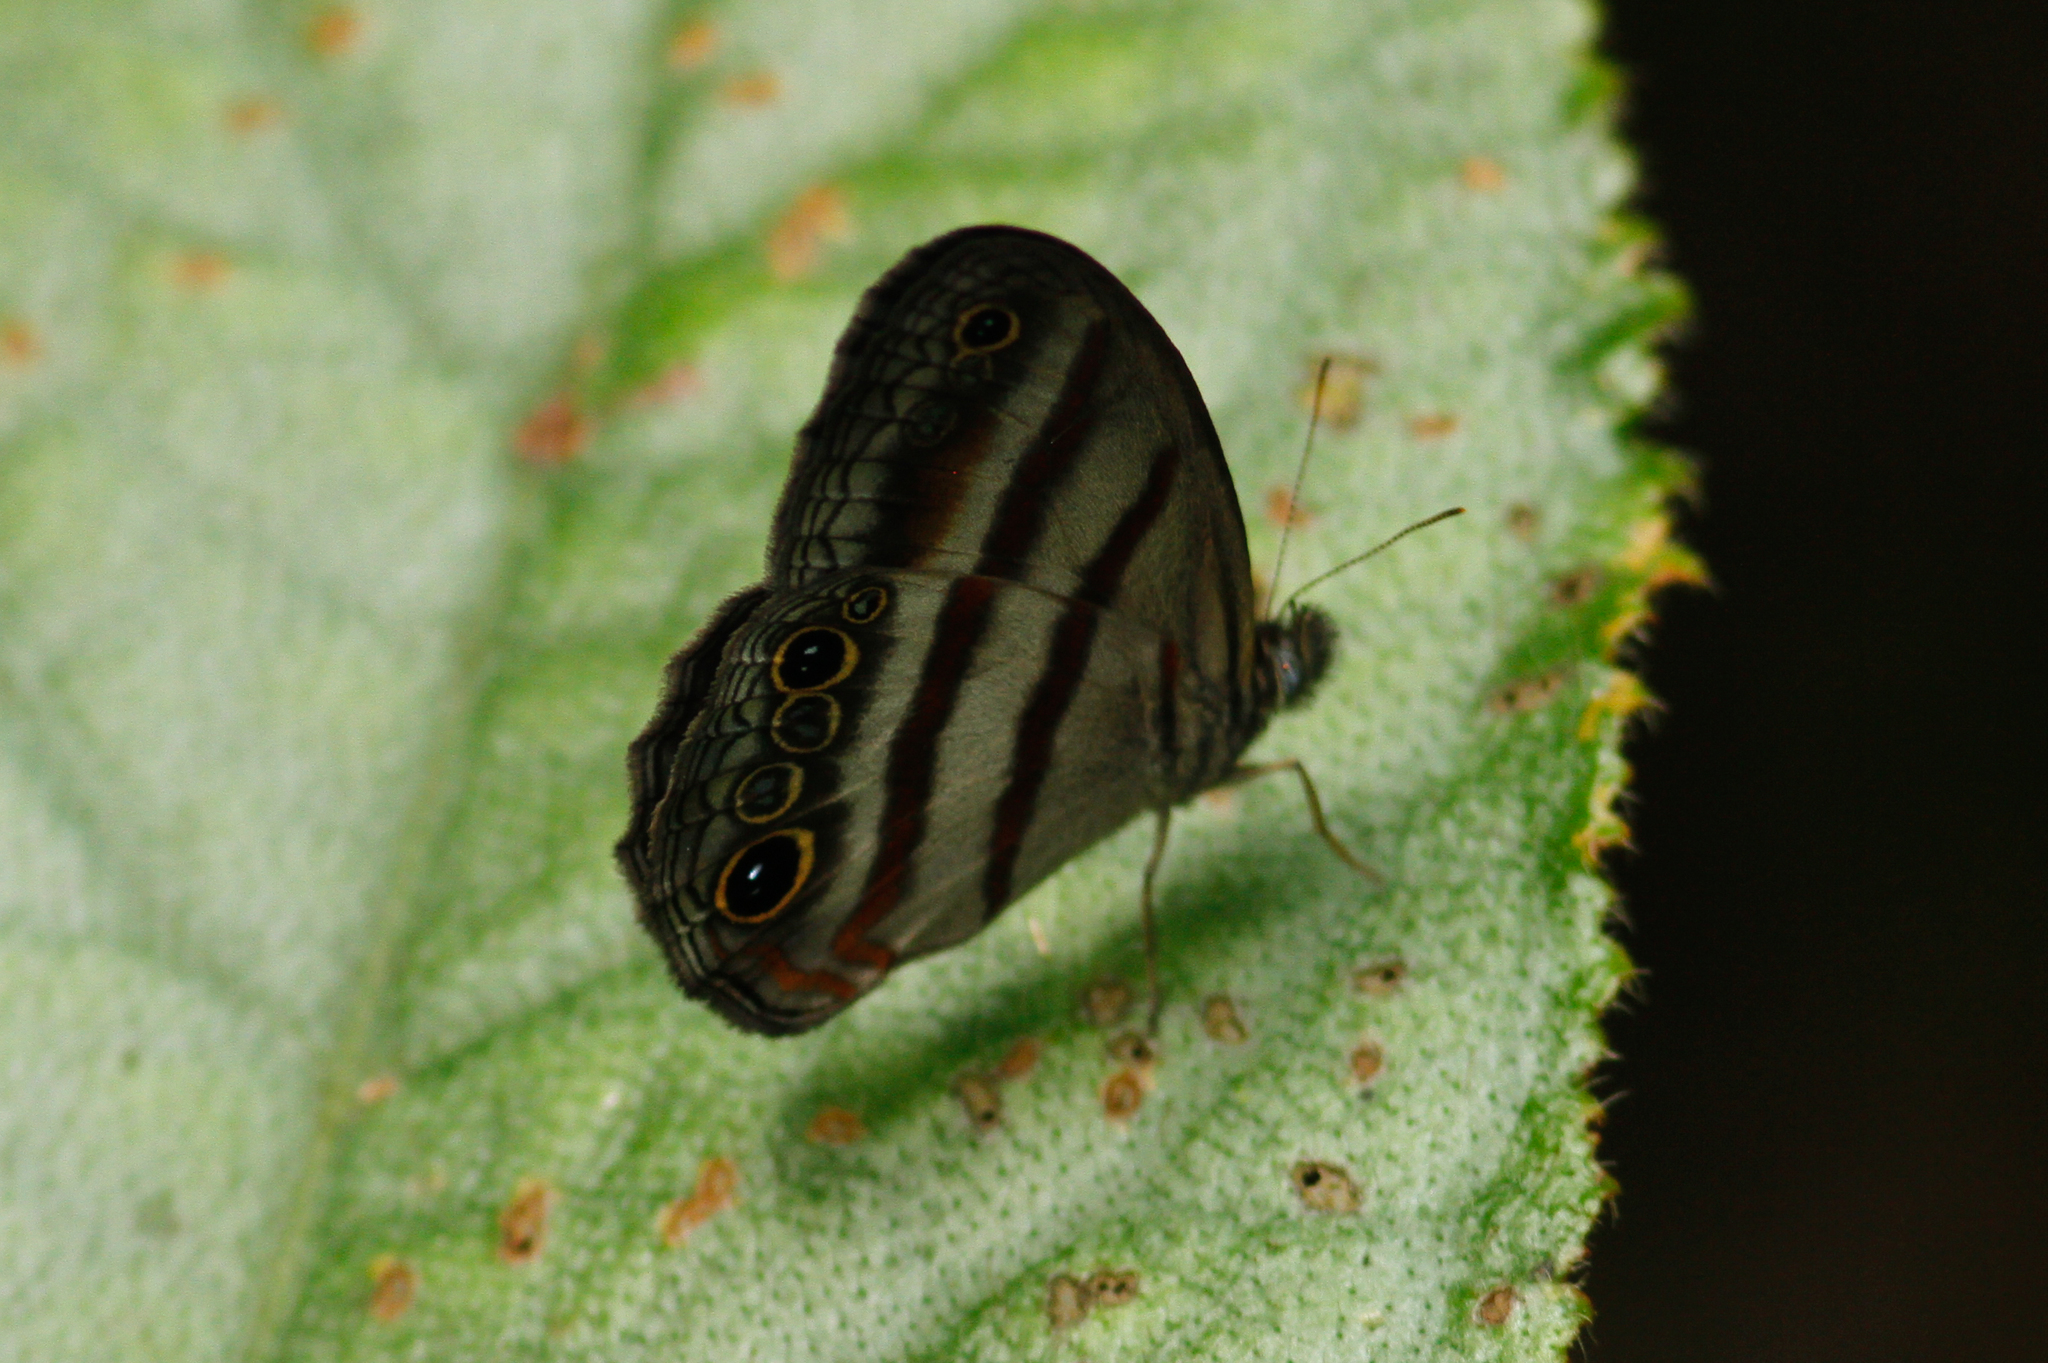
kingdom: Animalia
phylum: Arthropoda
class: Insecta
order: Lepidoptera
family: Nymphalidae
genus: Pareuptychia
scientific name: Pareuptychia hesione
